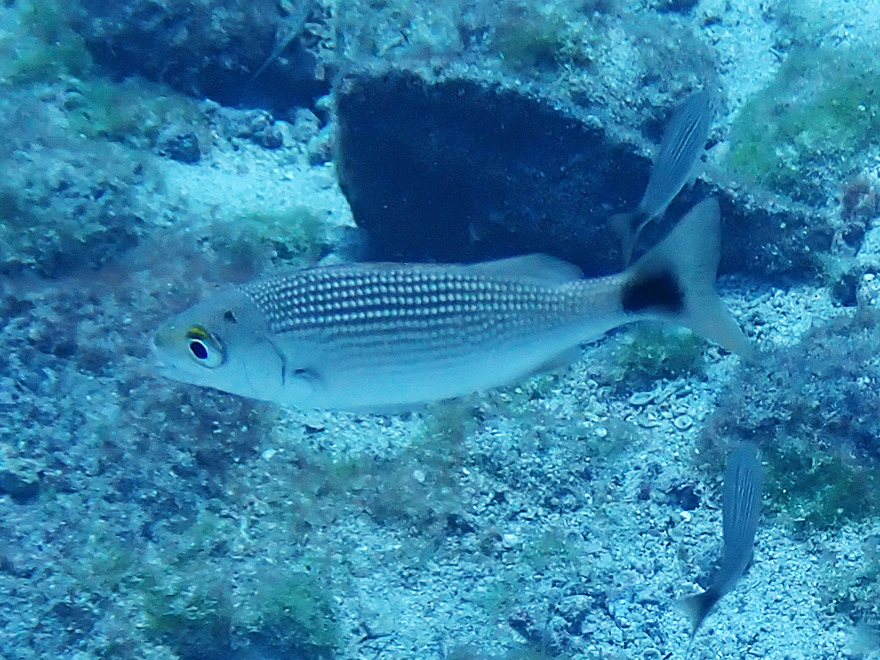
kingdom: Animalia
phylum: Chordata
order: Perciformes
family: Haemulidae
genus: Haemulon
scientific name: Haemulon maculicauda
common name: Spottail grunt
